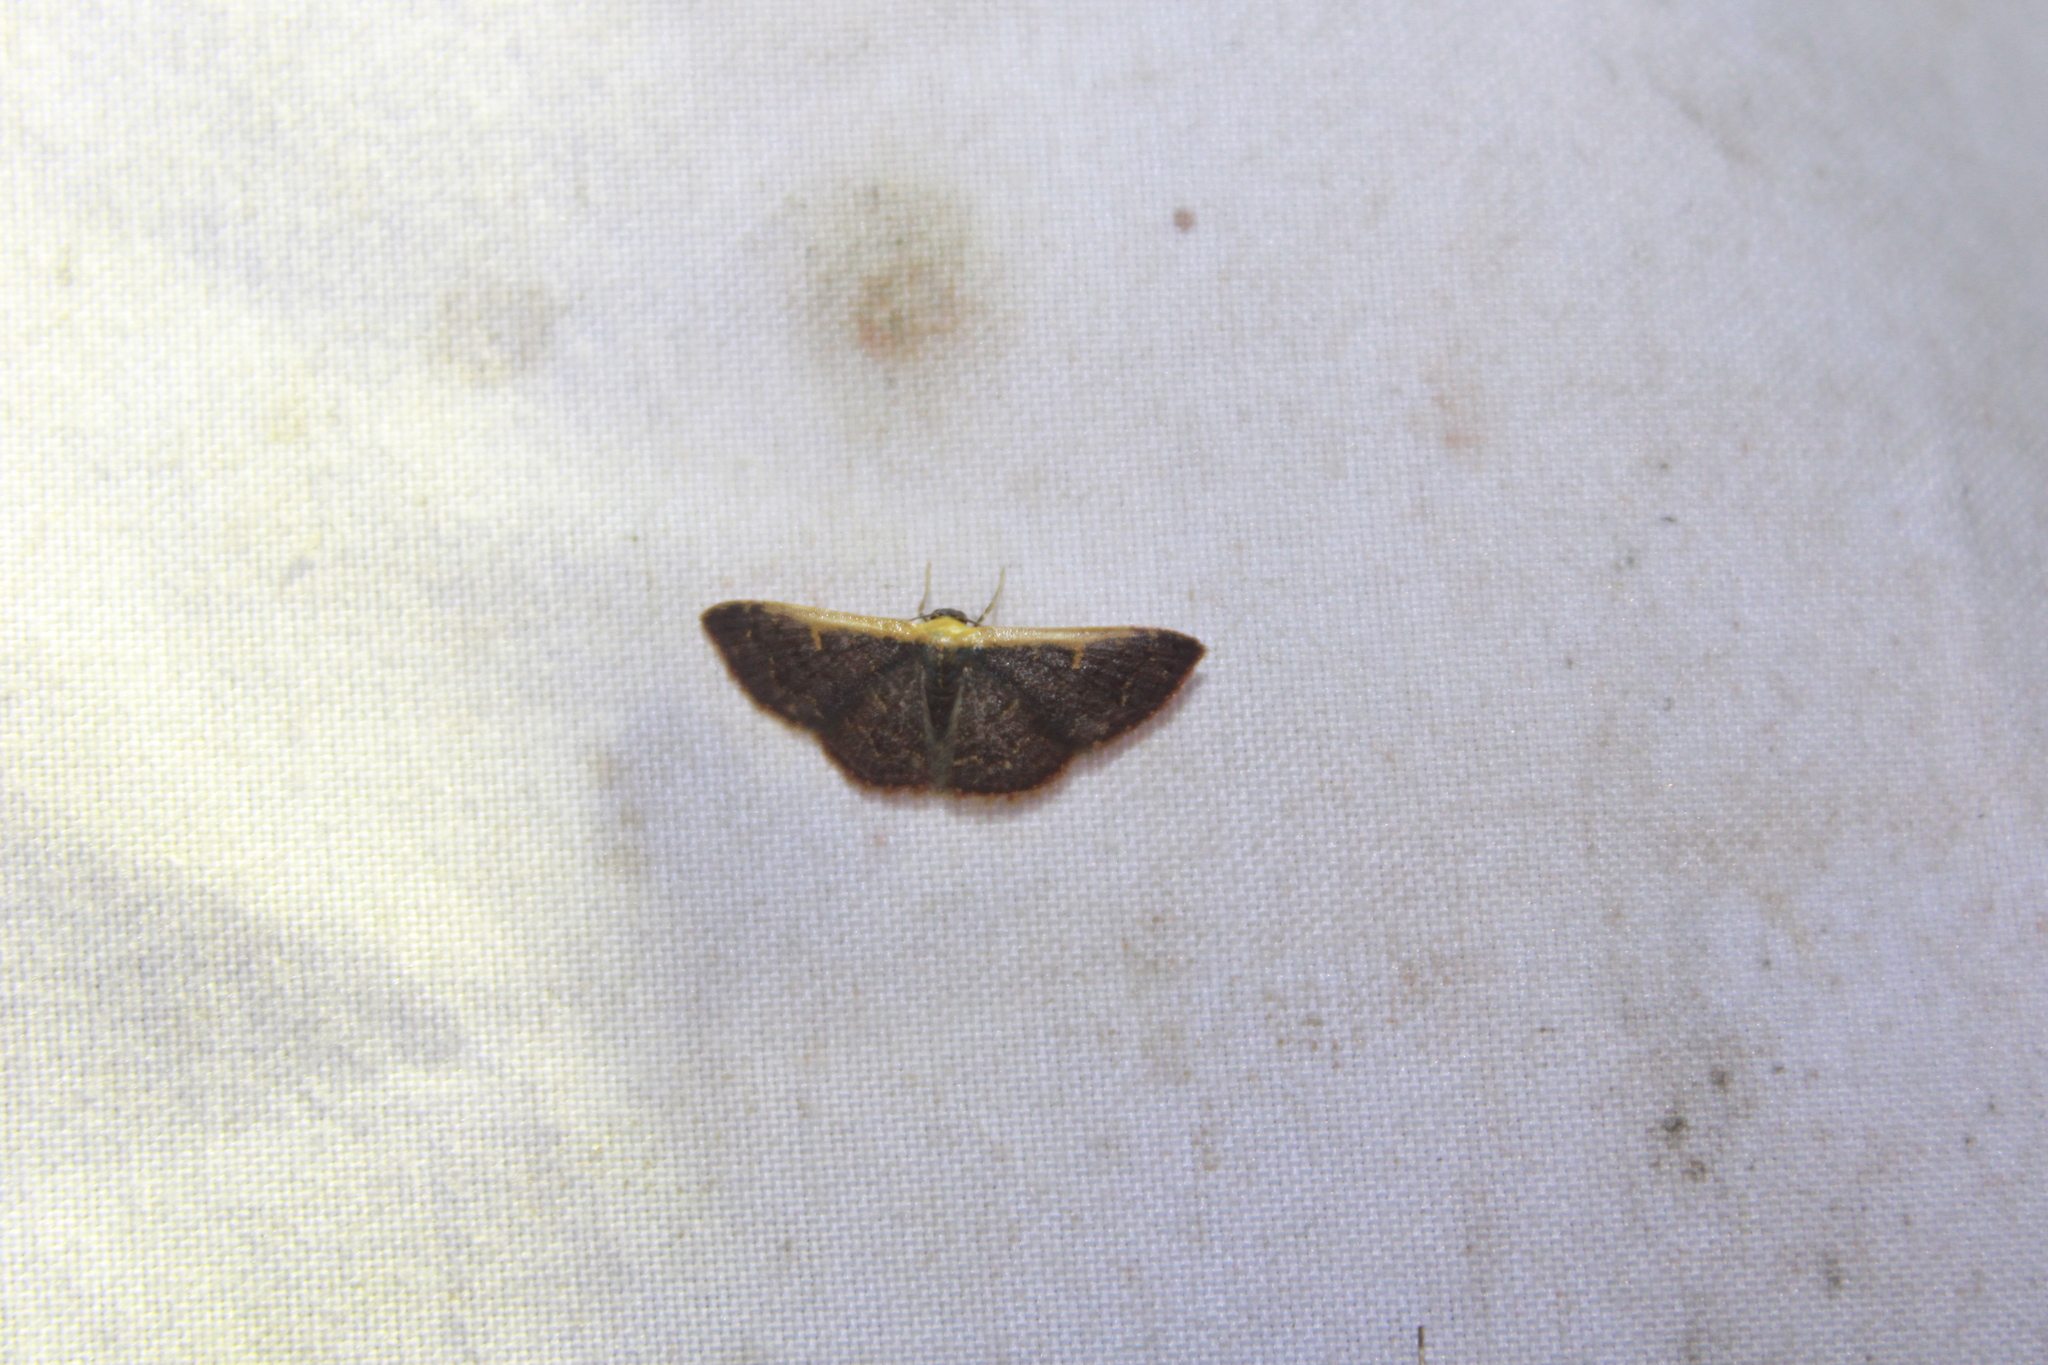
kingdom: Animalia
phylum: Arthropoda
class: Insecta
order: Lepidoptera
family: Geometridae
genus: Leptostales
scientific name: Leptostales crossii
